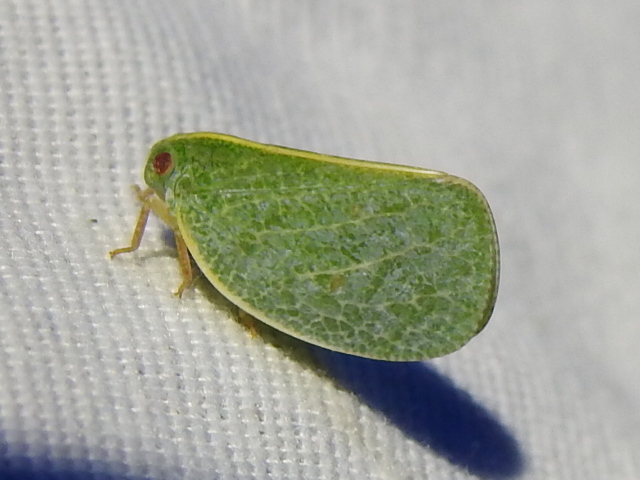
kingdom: Animalia
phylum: Arthropoda
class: Insecta
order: Hemiptera
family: Acanaloniidae
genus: Acanalonia
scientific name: Acanalonia servillei
